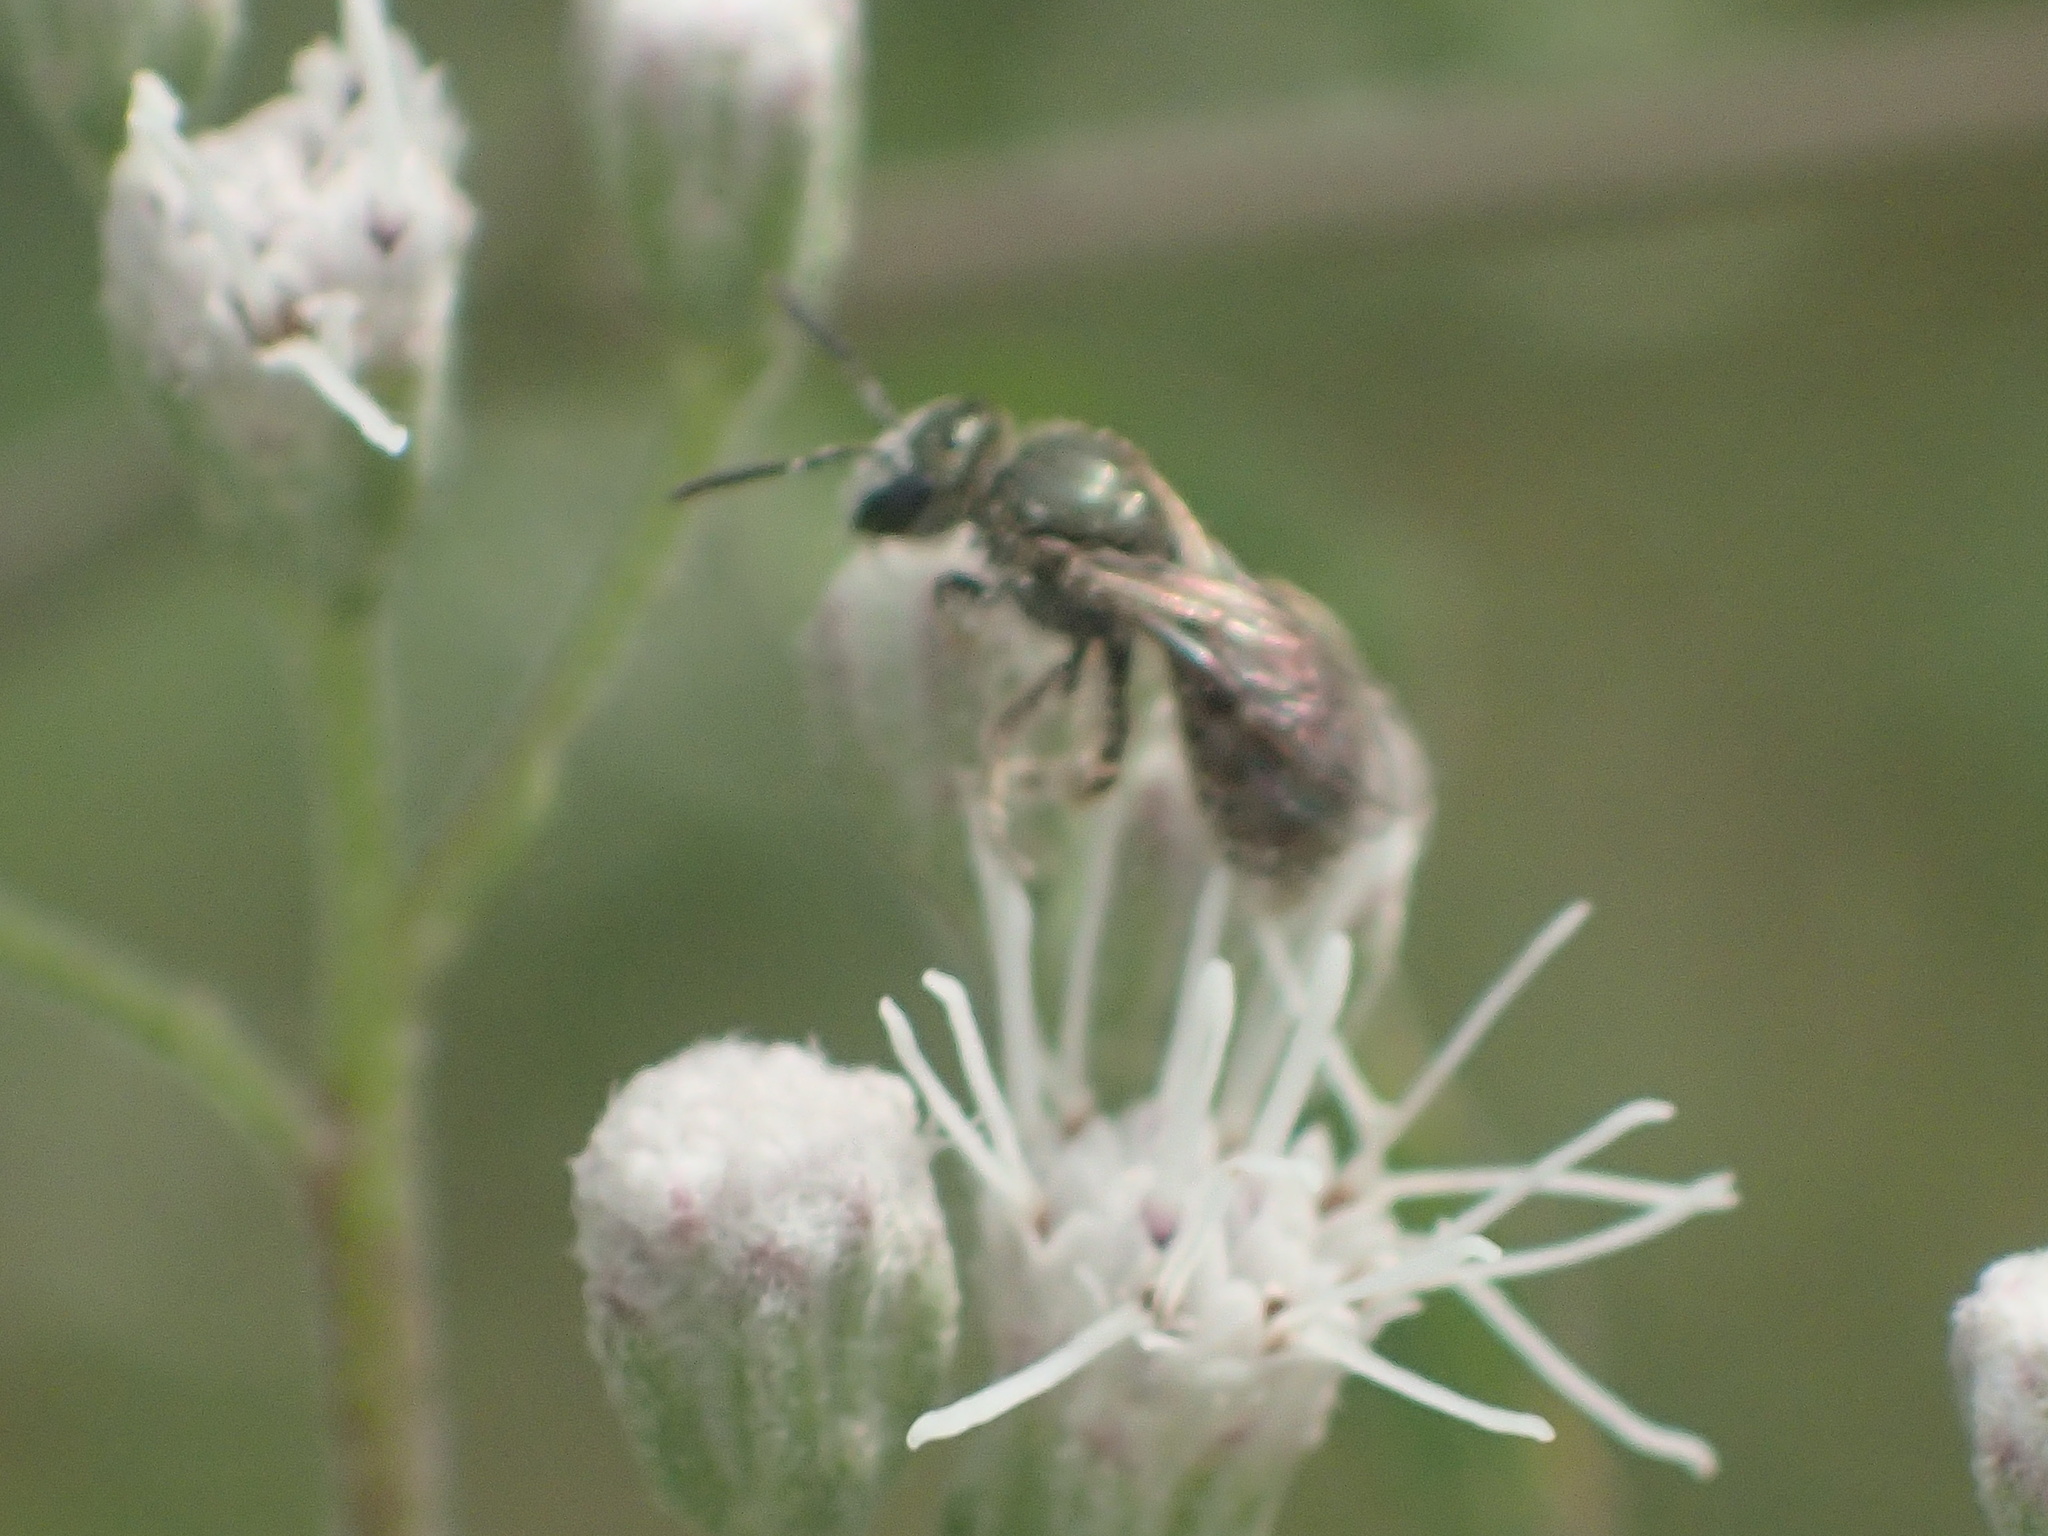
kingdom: Animalia
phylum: Arthropoda
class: Insecta
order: Hymenoptera
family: Halictidae
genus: Dialictus
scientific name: Dialictus
